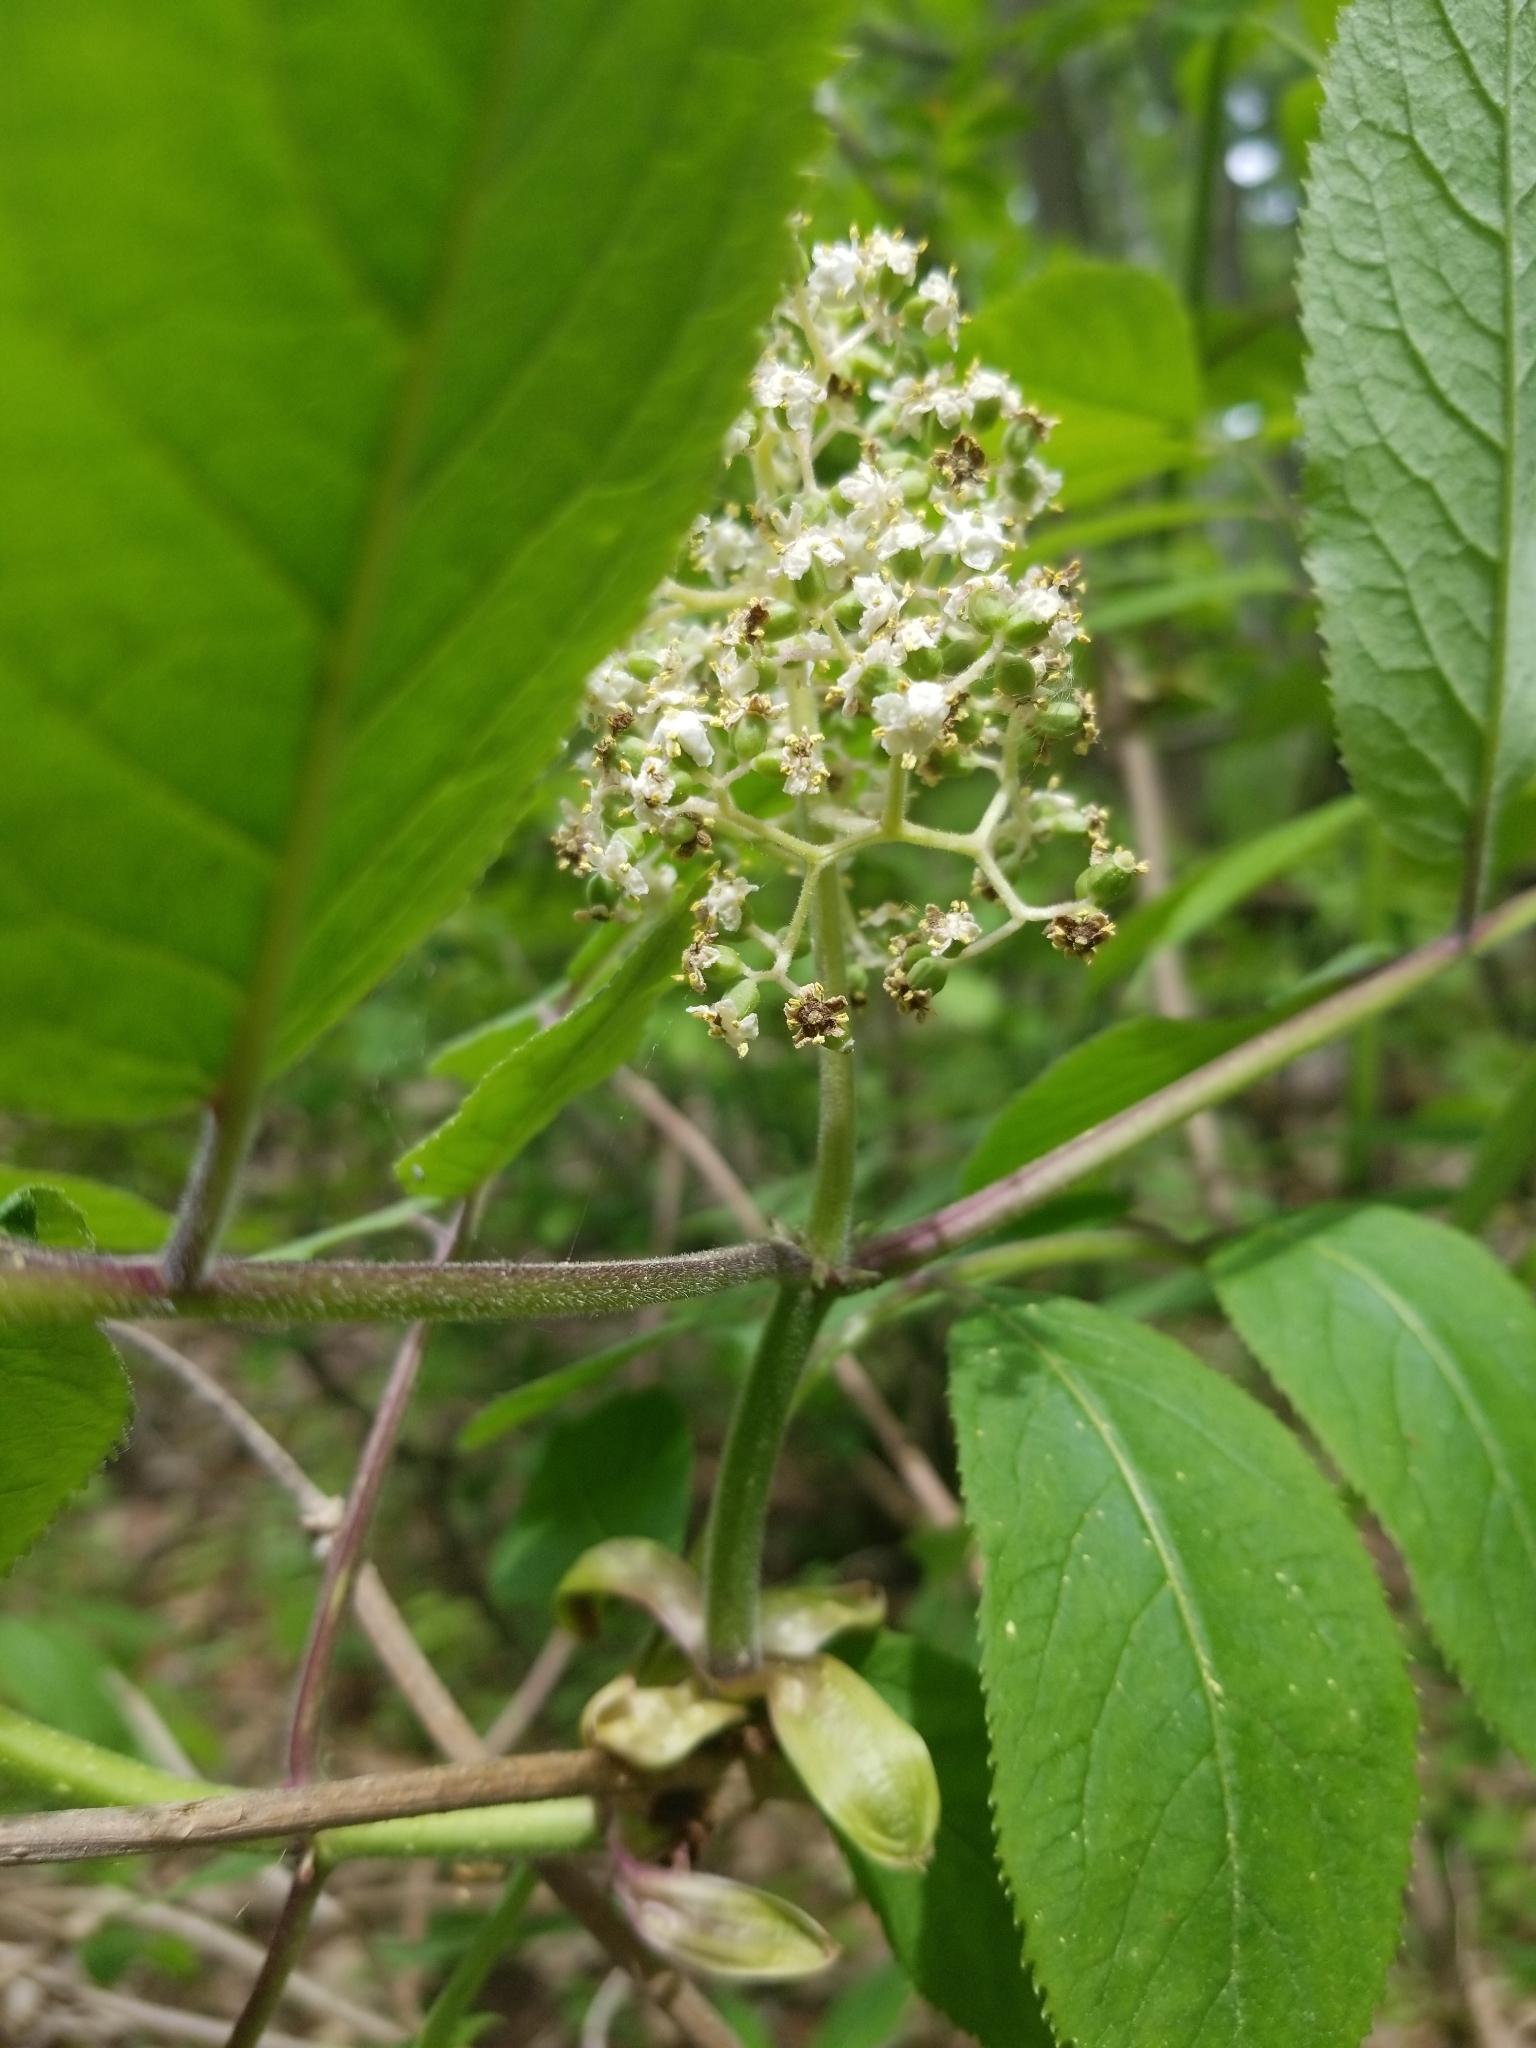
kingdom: Plantae
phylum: Tracheophyta
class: Magnoliopsida
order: Dipsacales
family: Viburnaceae
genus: Sambucus
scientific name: Sambucus racemosa
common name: Red-berried elder
